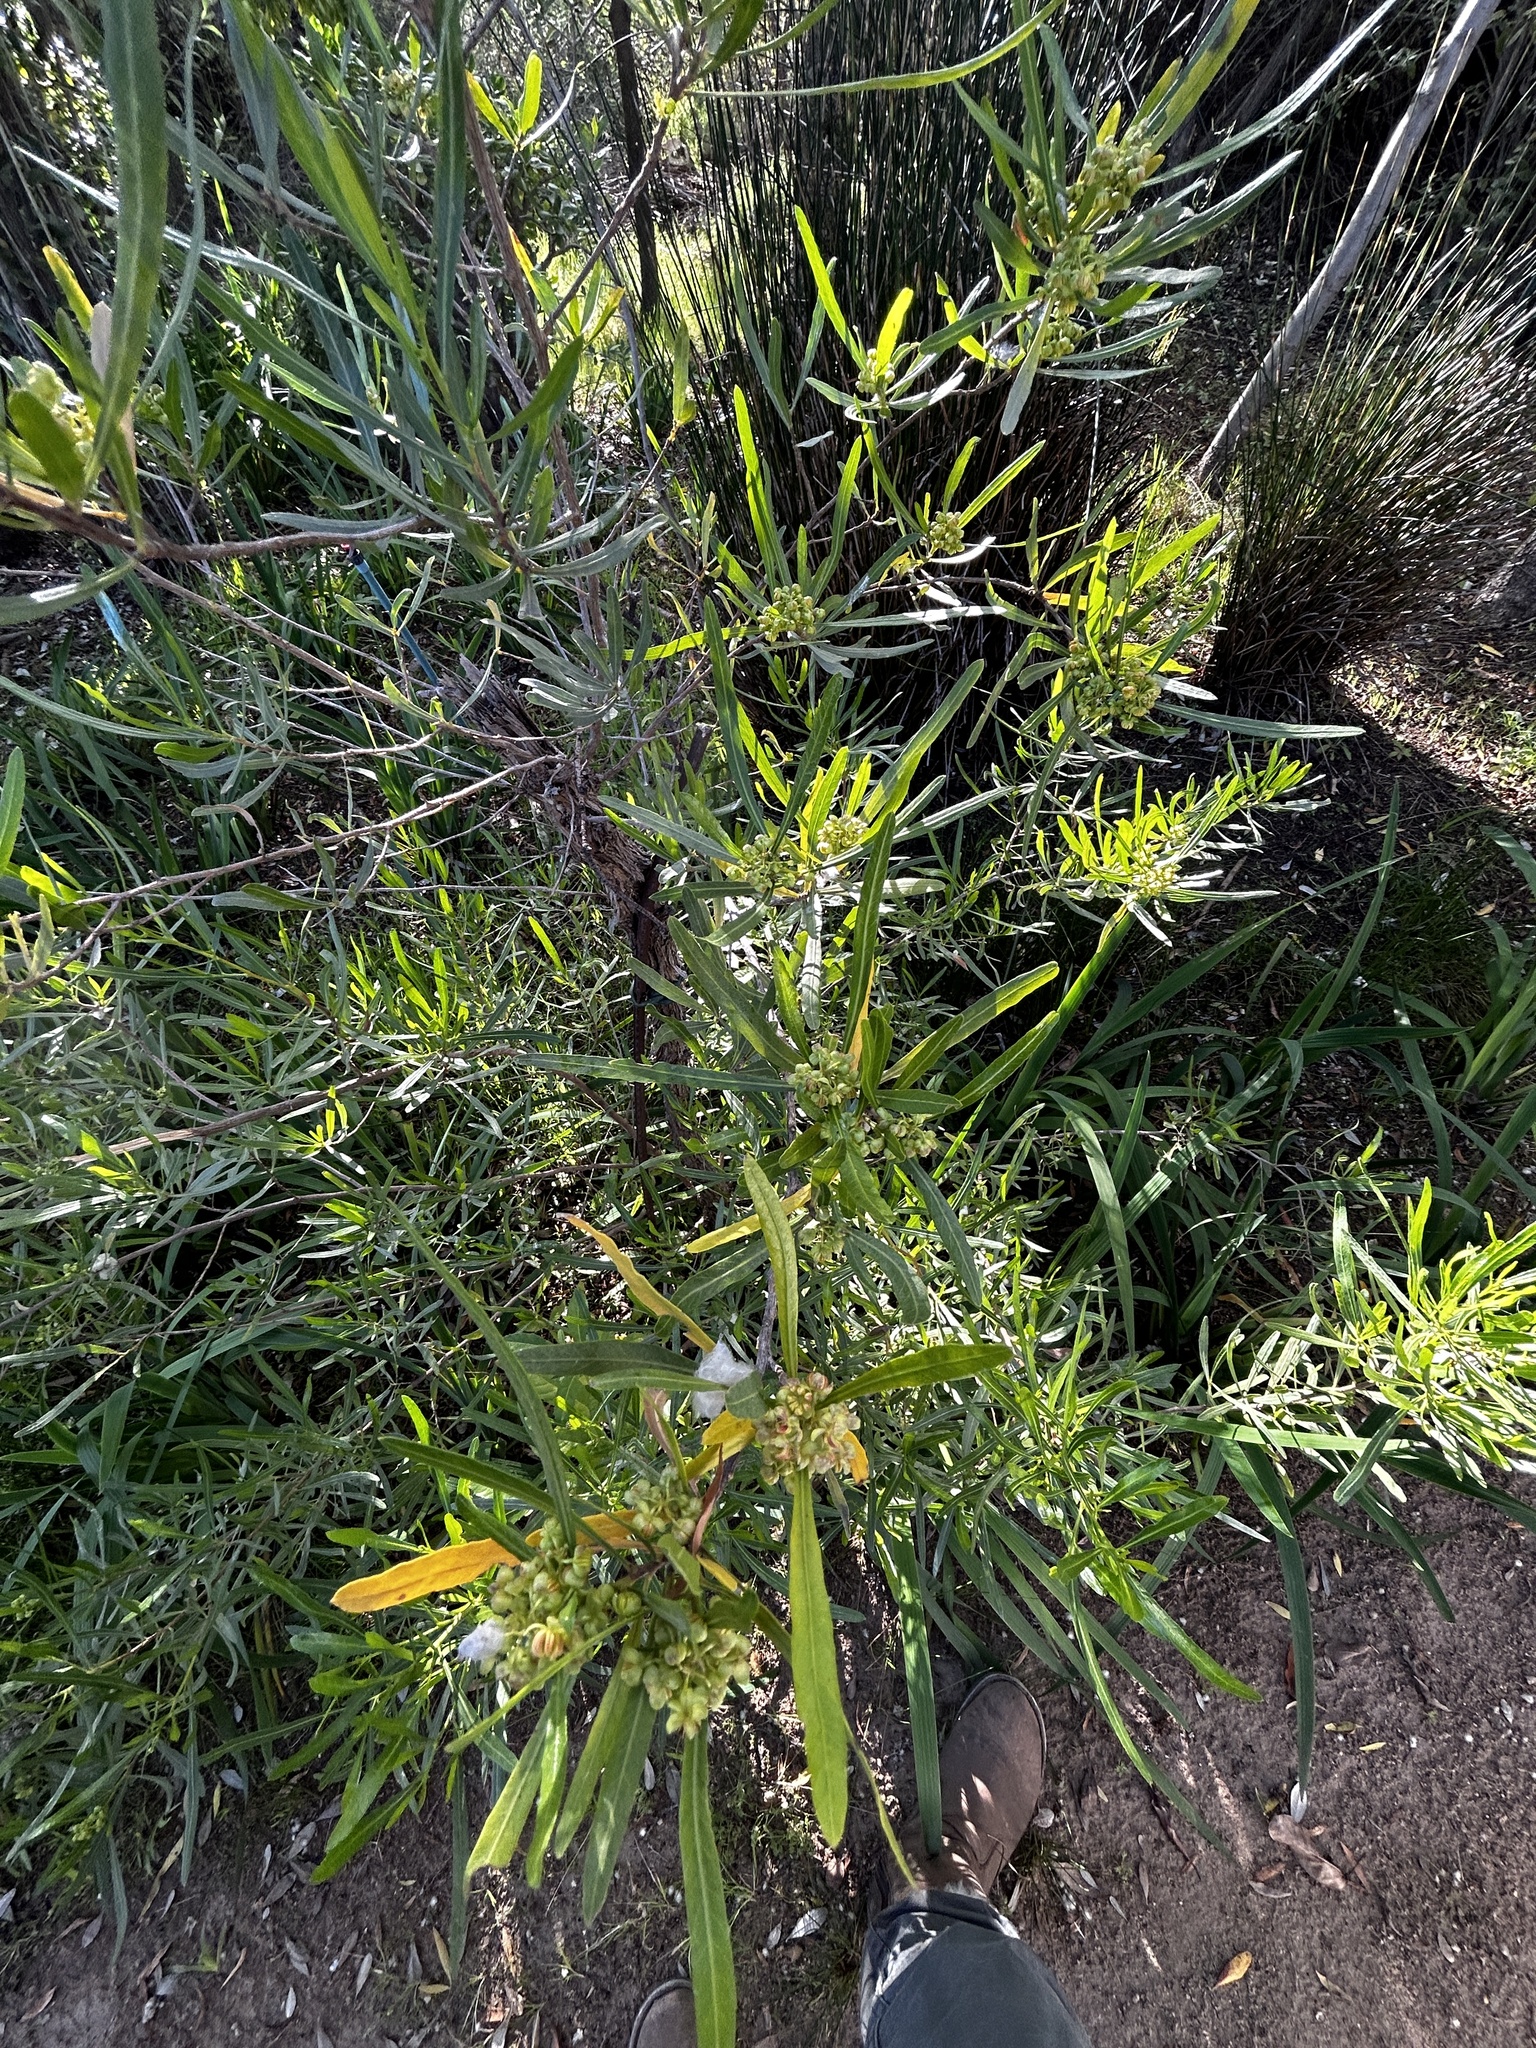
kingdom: Plantae
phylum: Tracheophyta
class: Magnoliopsida
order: Sapindales
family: Sapindaceae
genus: Dodonaea
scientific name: Dodonaea viscosa
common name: Hopbush
